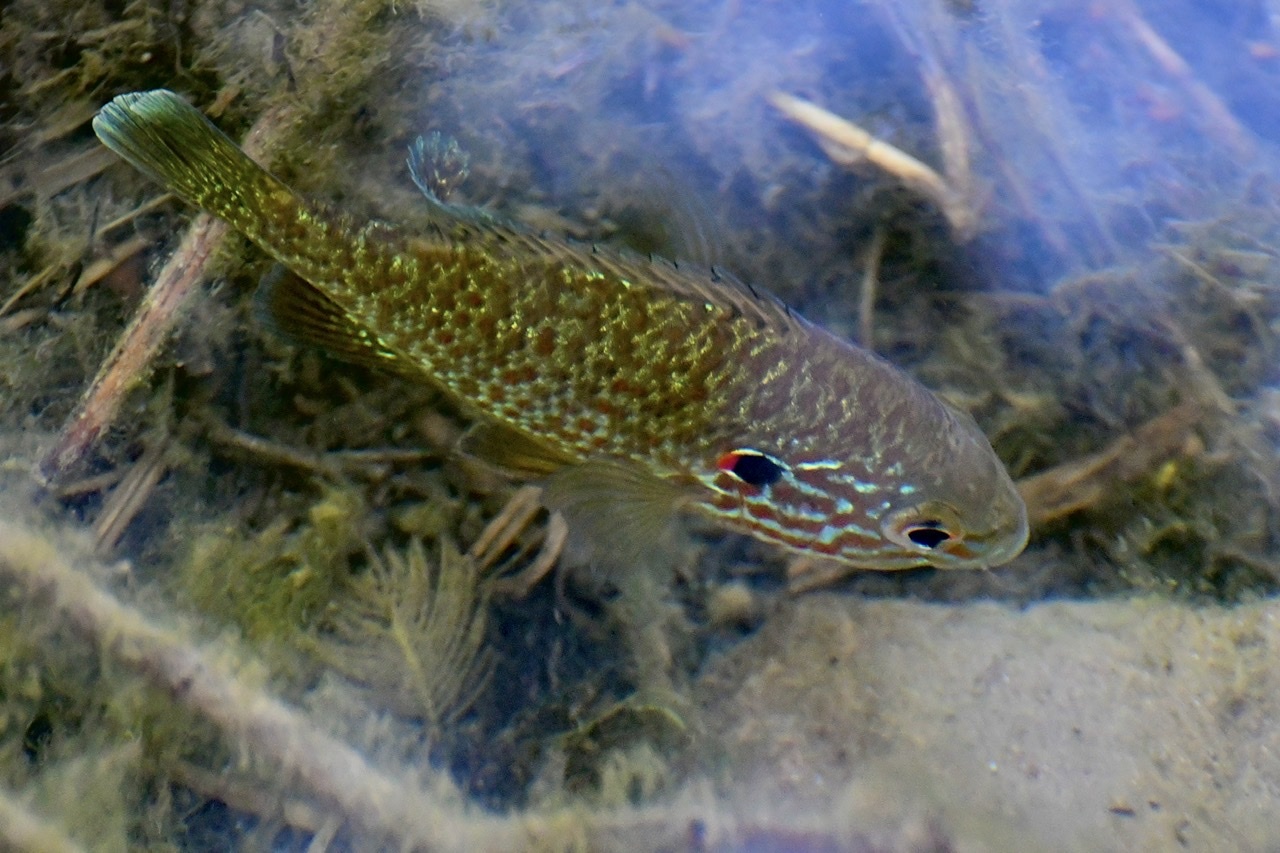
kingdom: Animalia
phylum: Chordata
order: Perciformes
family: Centrarchidae
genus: Lepomis
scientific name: Lepomis gibbosus
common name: Pumpkinseed
